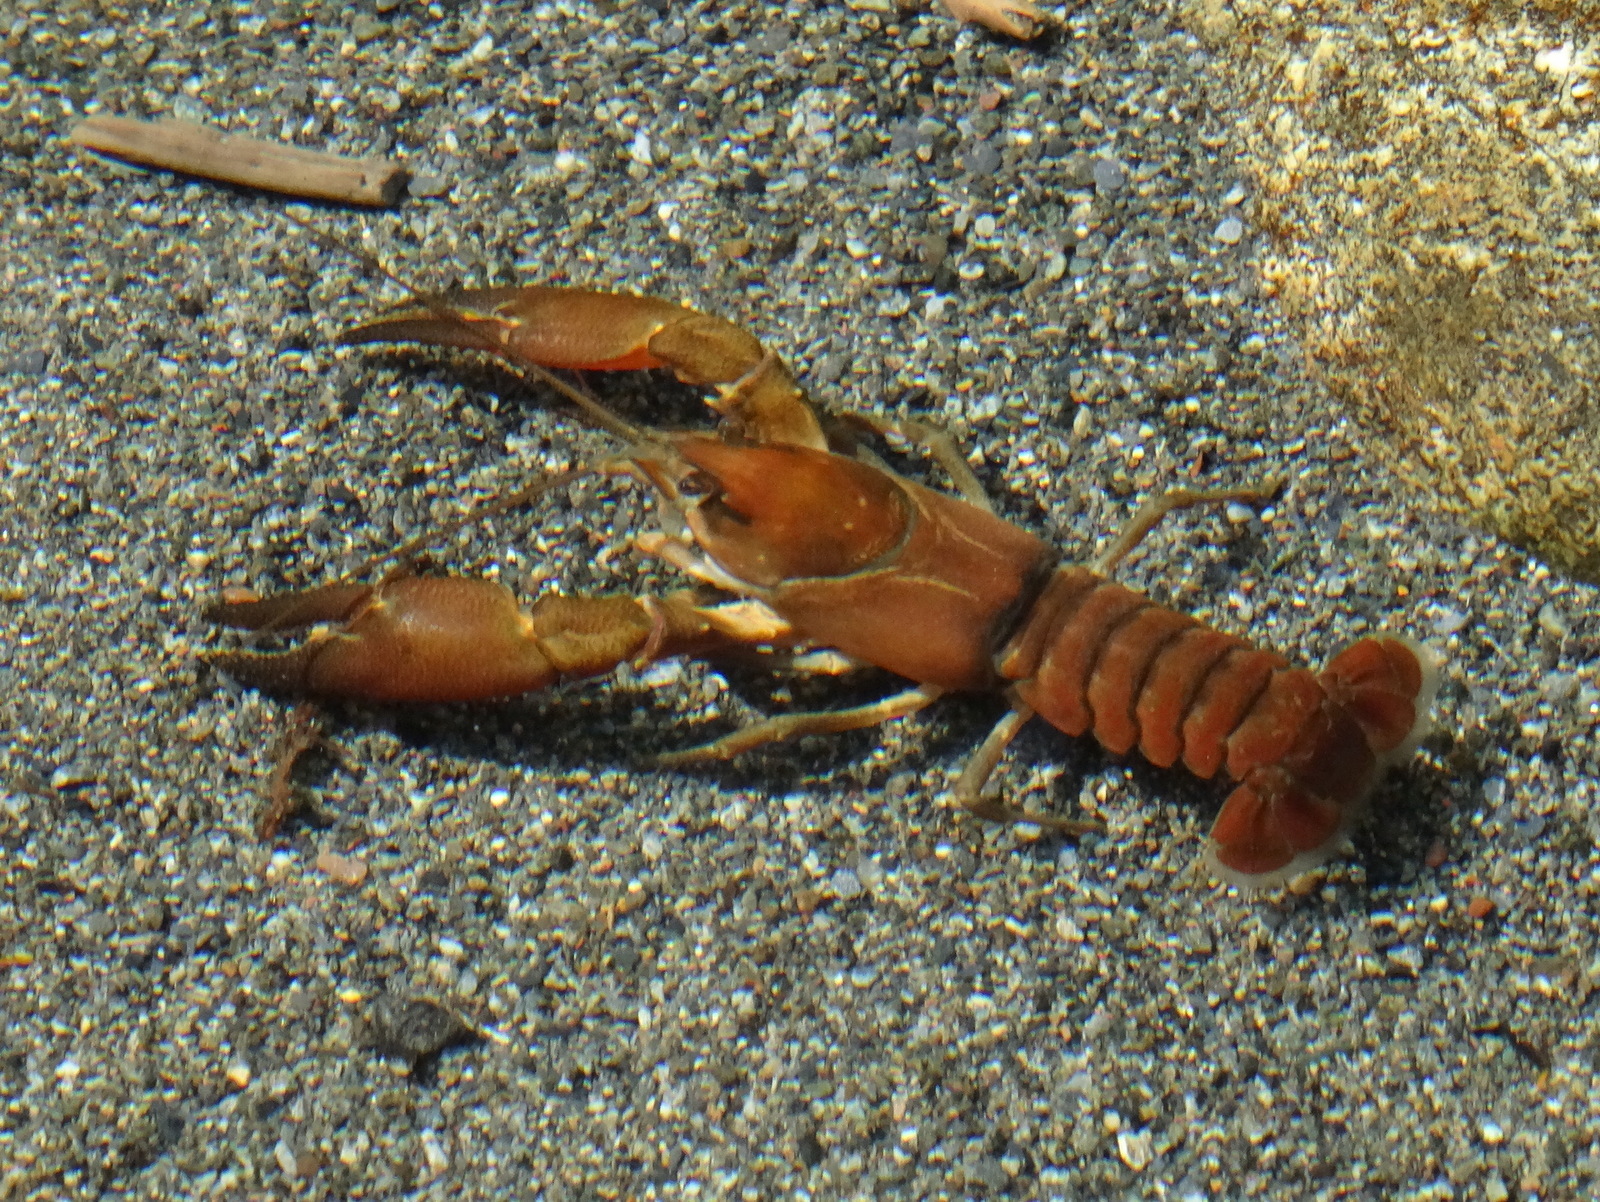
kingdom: Animalia
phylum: Arthropoda
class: Malacostraca
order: Decapoda
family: Astacidae
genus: Pacifastacus
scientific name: Pacifastacus leniusculus
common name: Signal crayfish
